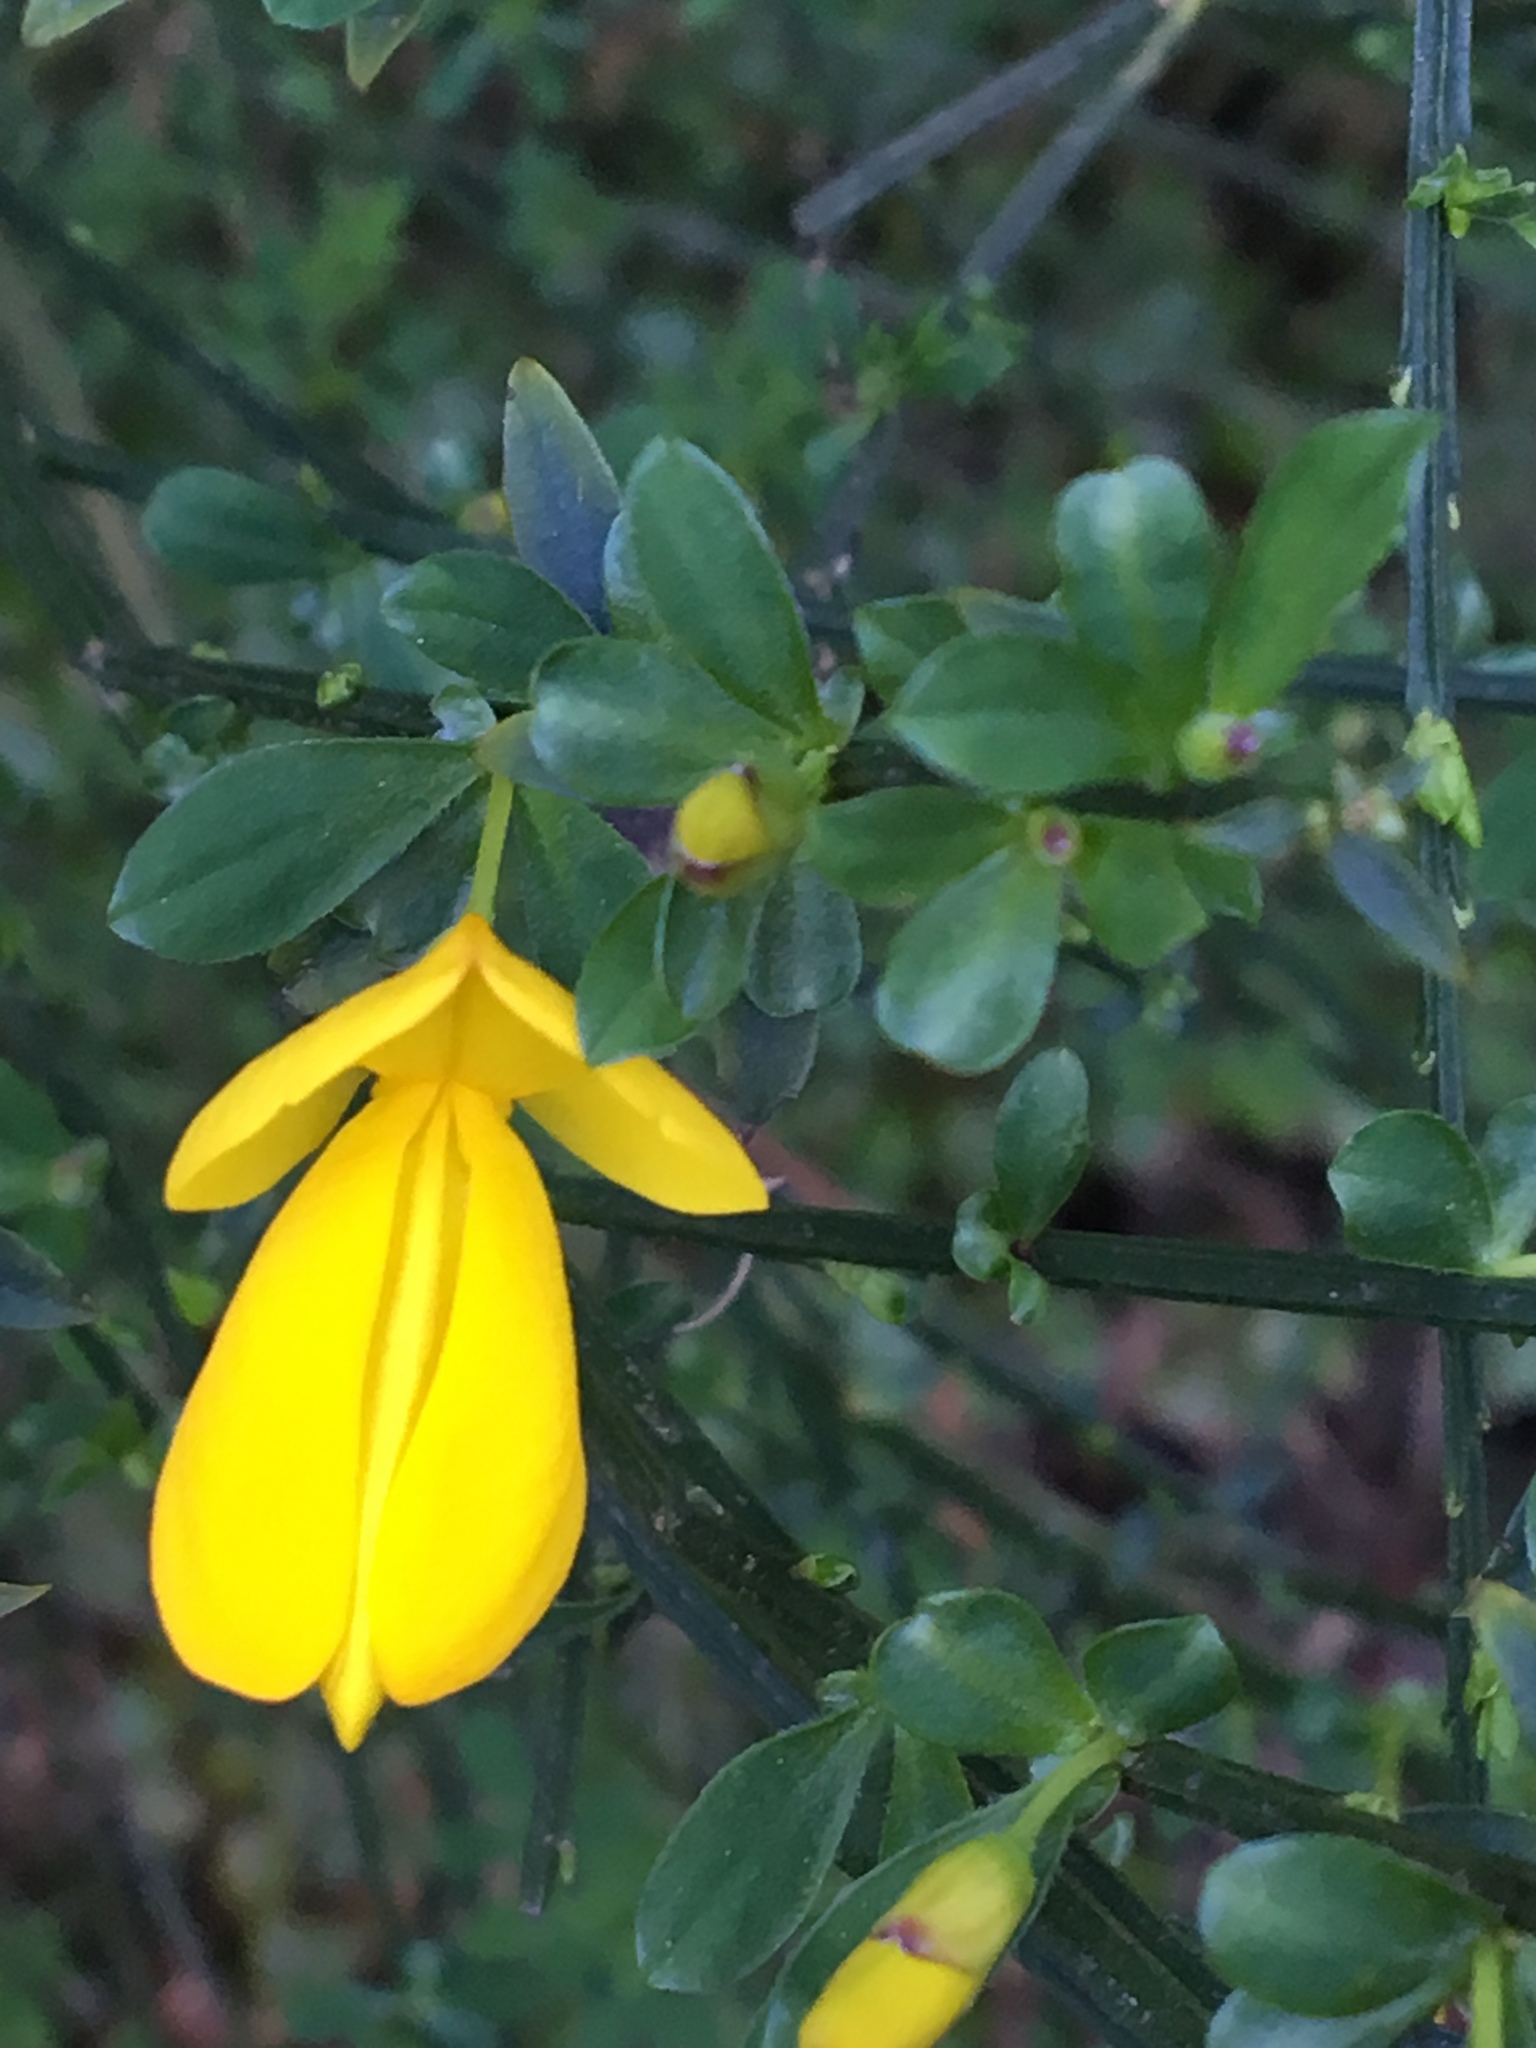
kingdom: Plantae
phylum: Tracheophyta
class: Magnoliopsida
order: Fabales
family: Fabaceae
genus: Cytisus
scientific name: Cytisus scoparius
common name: Scotch broom
